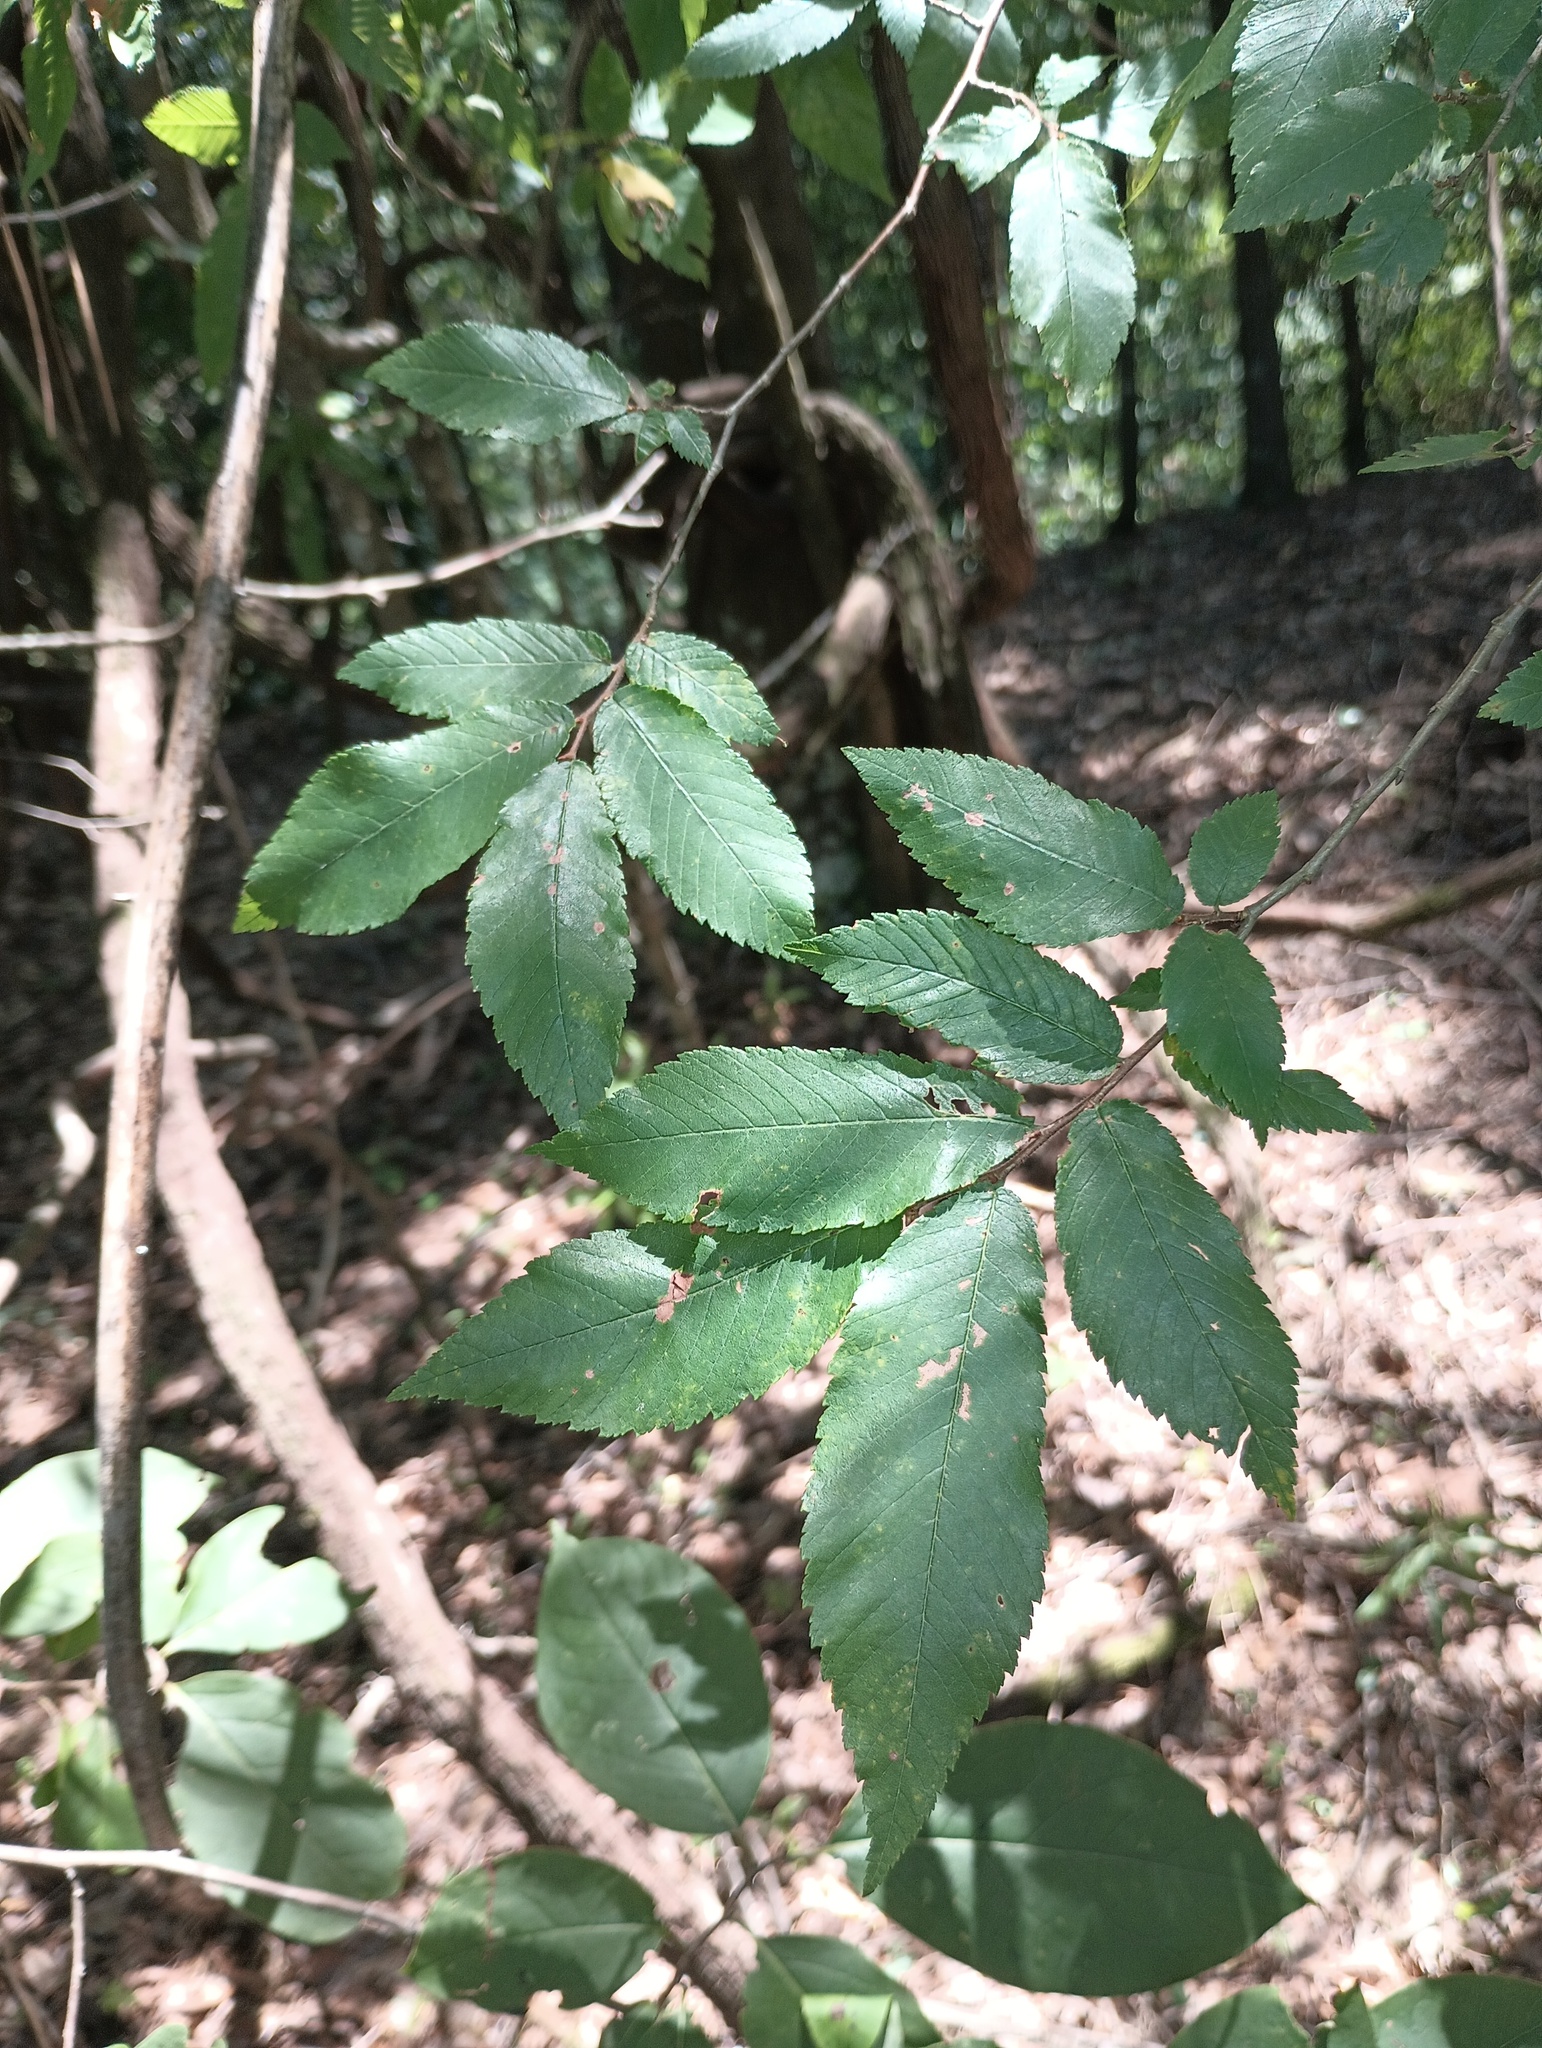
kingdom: Plantae
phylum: Tracheophyta
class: Magnoliopsida
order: Rosales
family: Ulmaceae
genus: Ulmus
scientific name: Ulmus alata
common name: Winged elm
